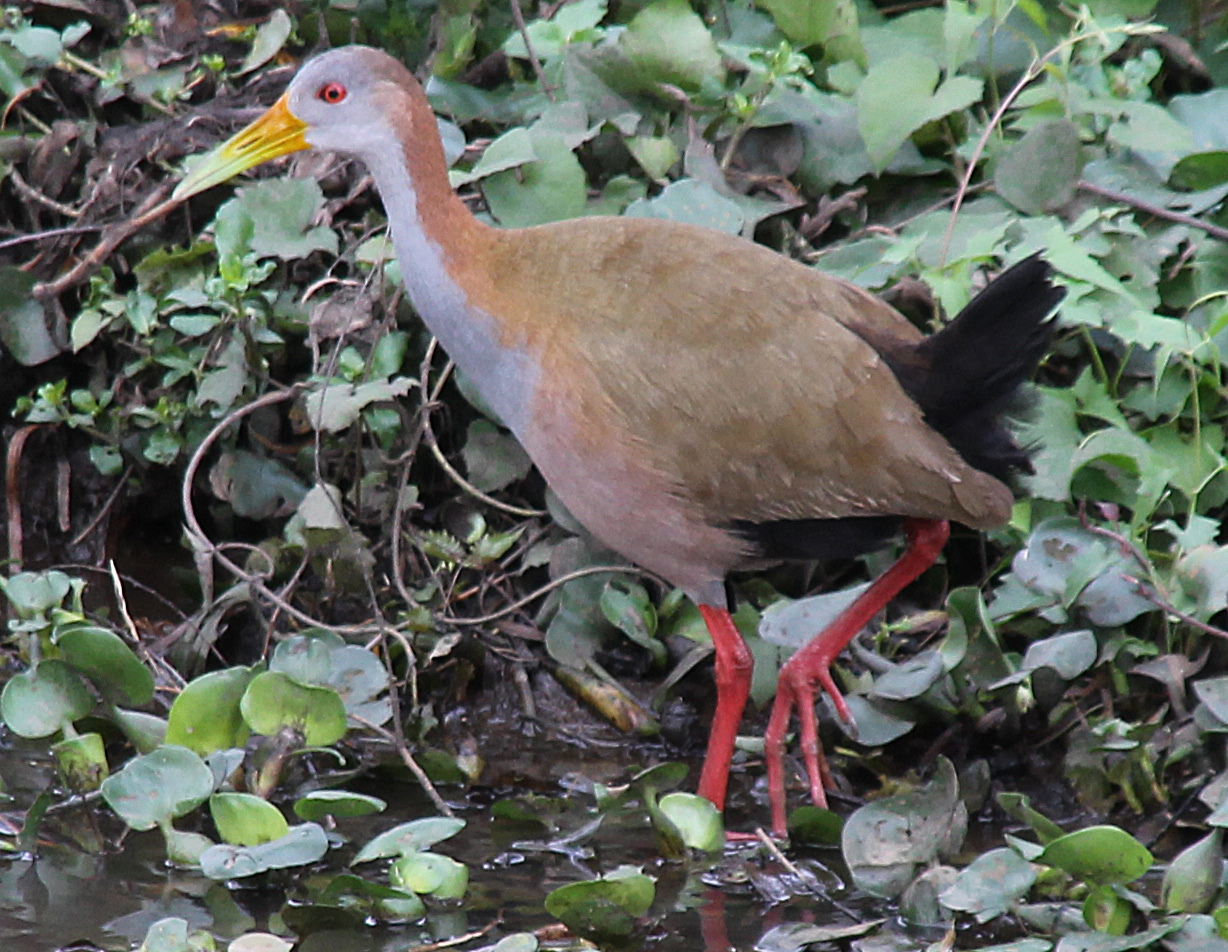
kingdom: Animalia
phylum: Chordata
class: Aves
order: Gruiformes
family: Rallidae
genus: Aramides
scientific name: Aramides ypecaha
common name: Giant wood rail
